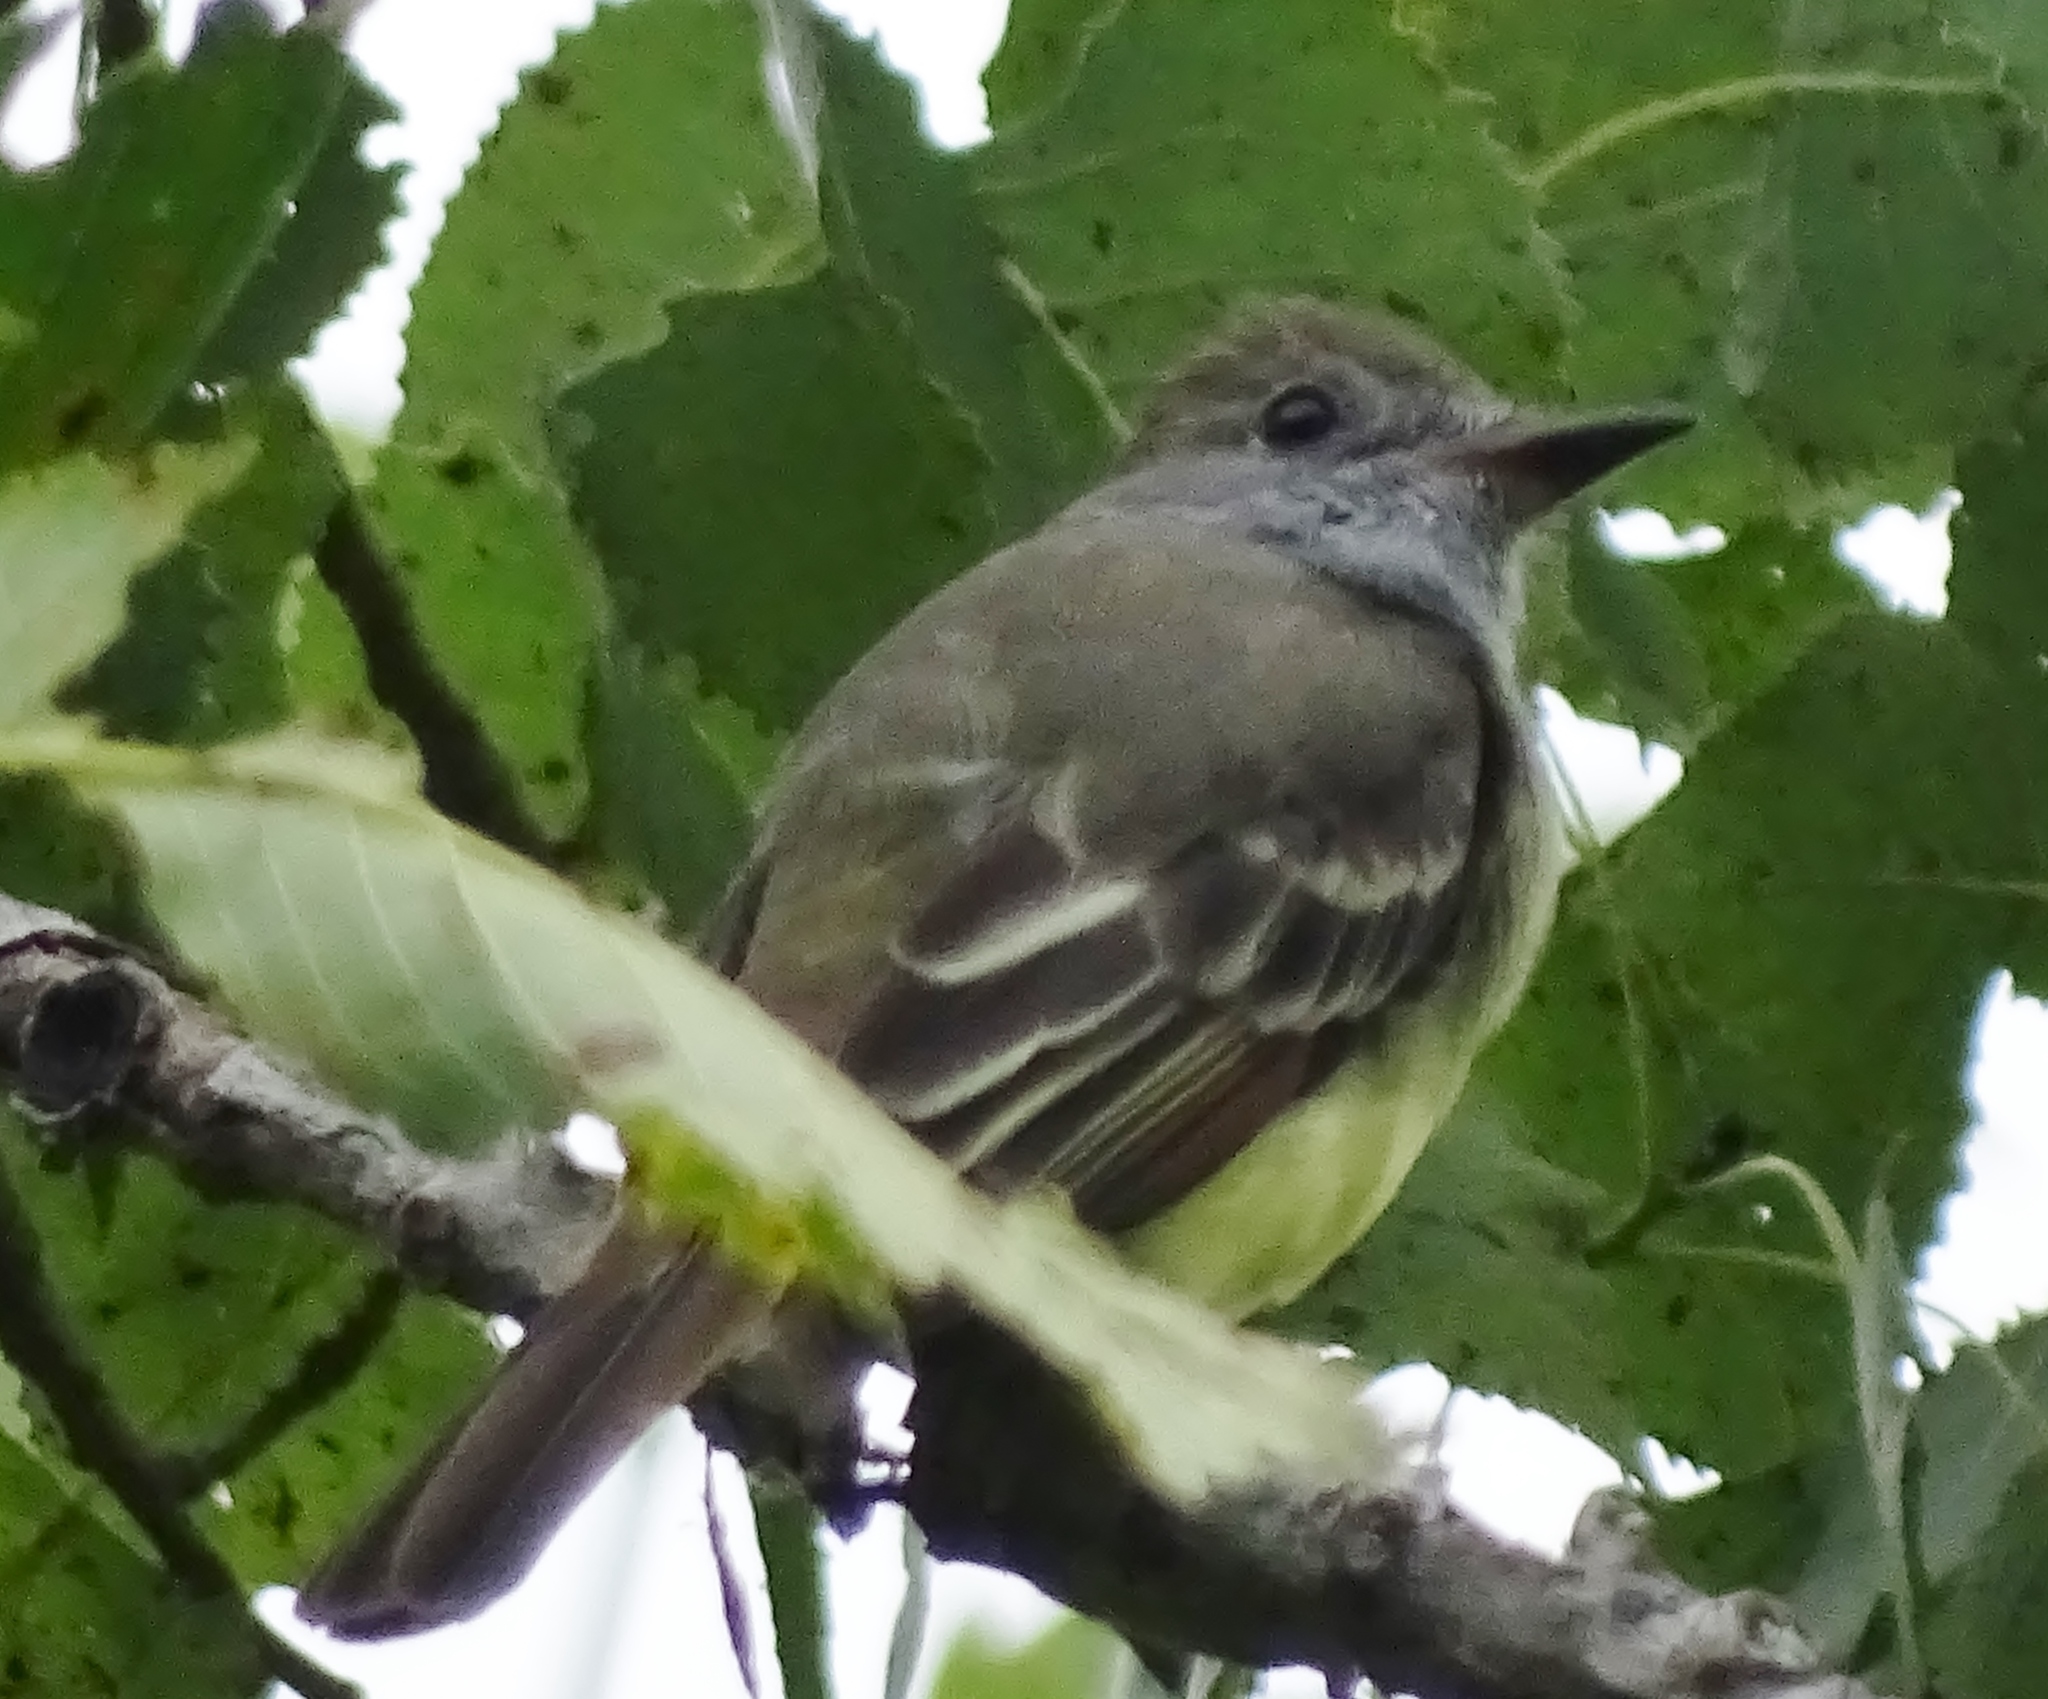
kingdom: Animalia
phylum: Chordata
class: Aves
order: Passeriformes
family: Tyrannidae
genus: Myiarchus
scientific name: Myiarchus crinitus
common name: Great crested flycatcher
